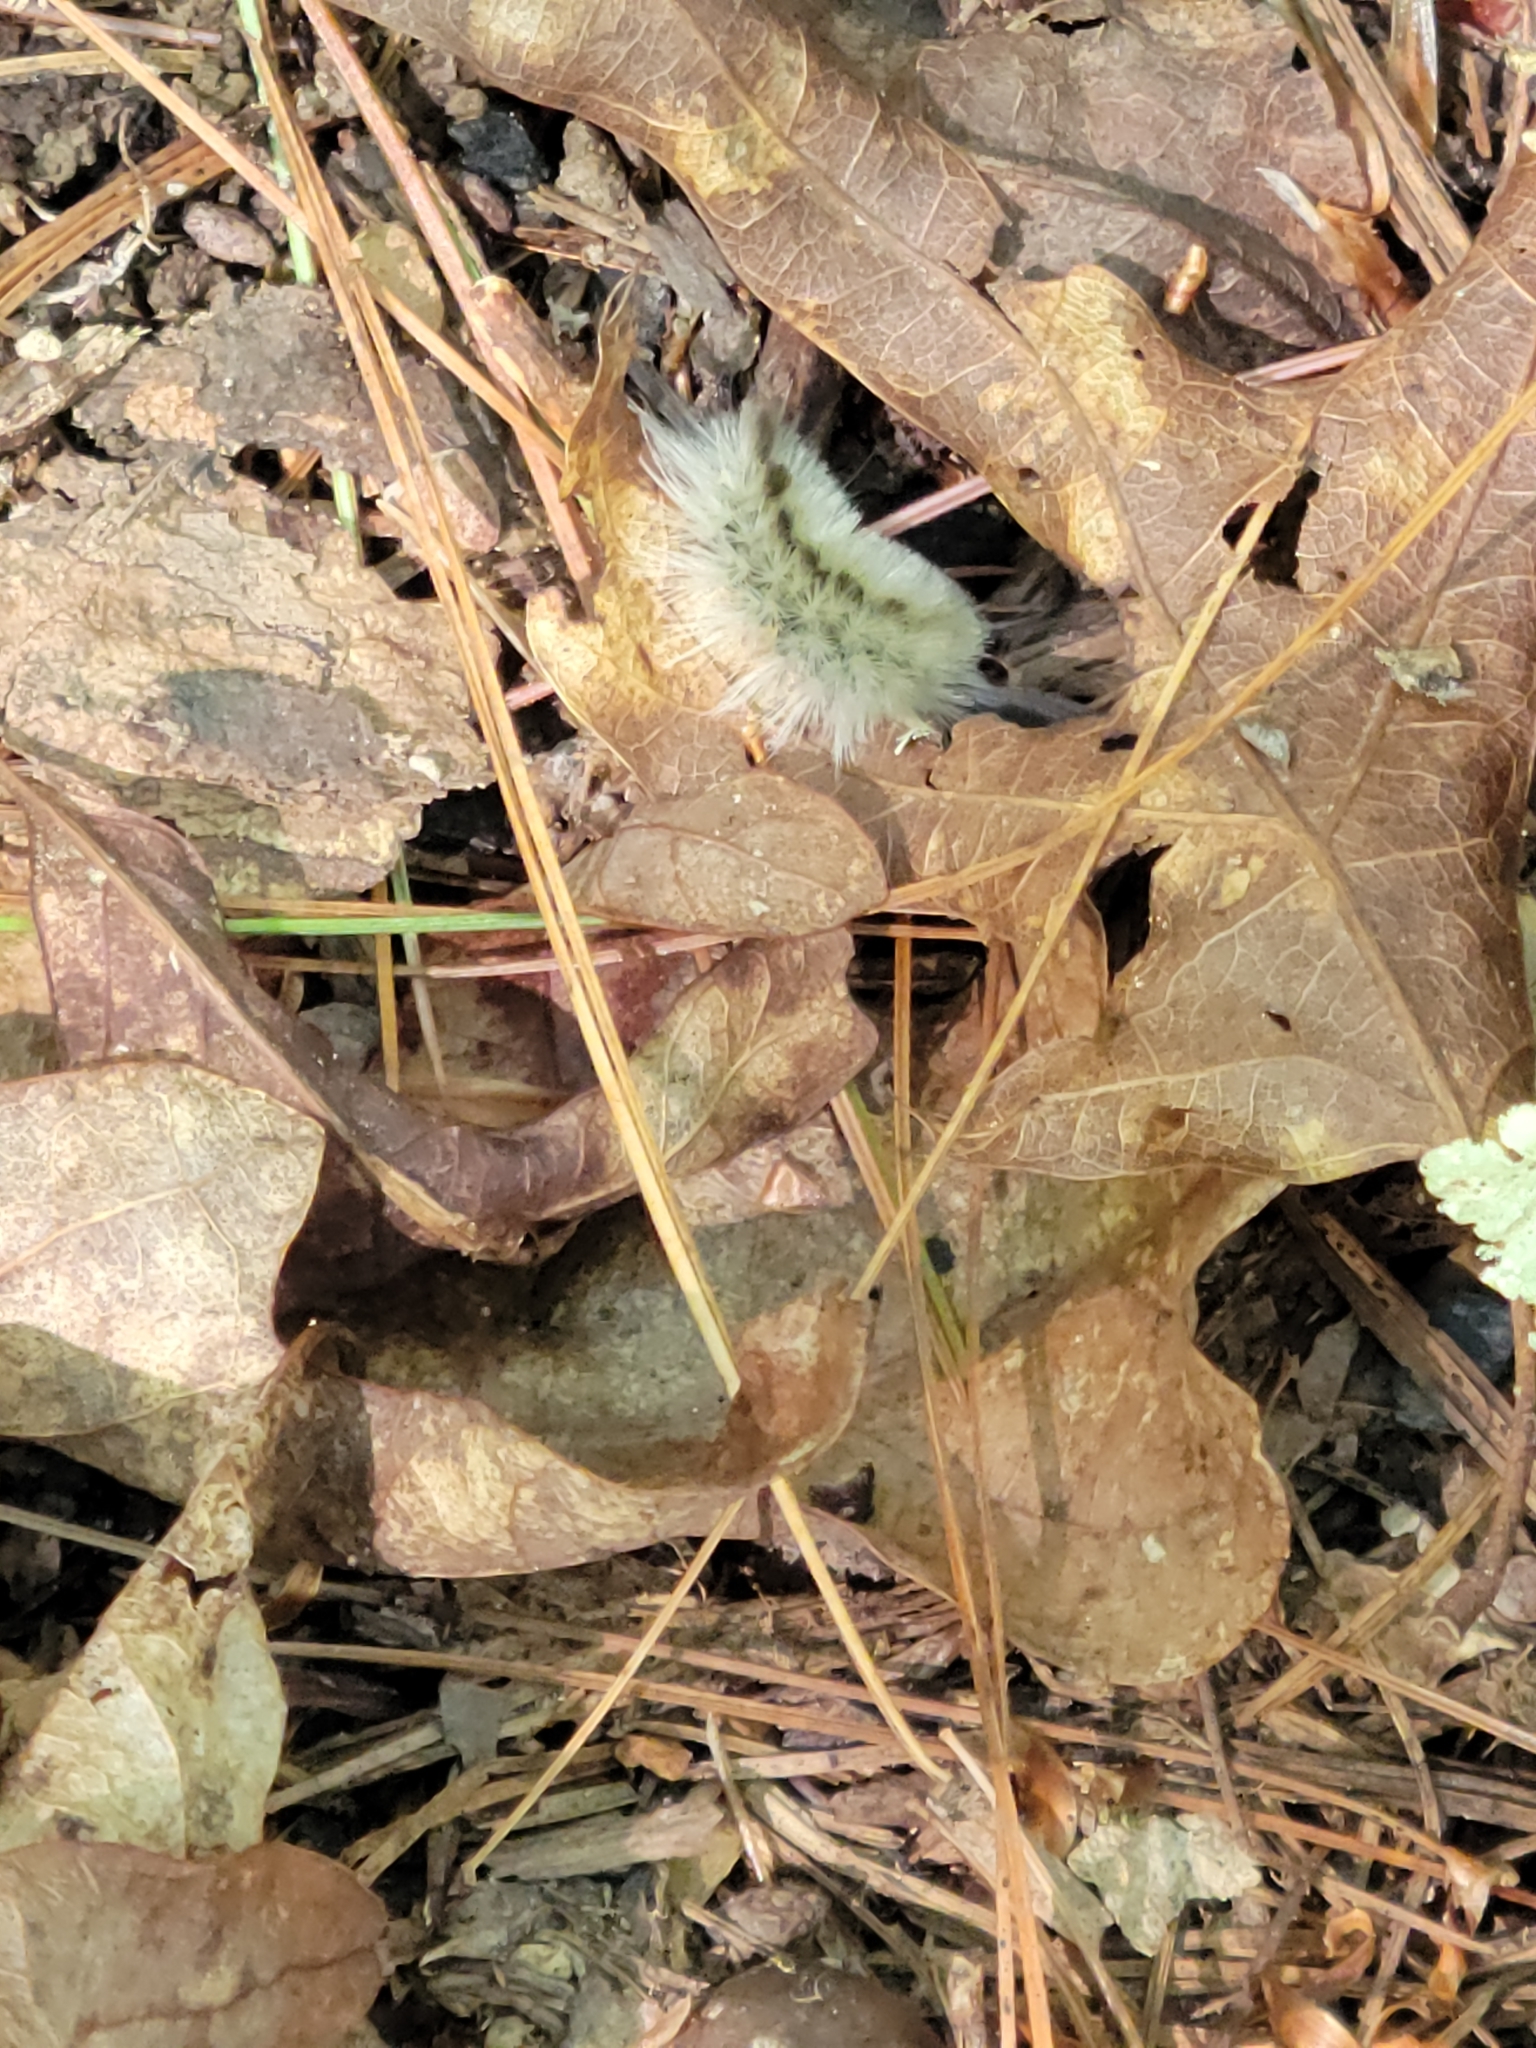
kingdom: Animalia
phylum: Arthropoda
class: Insecta
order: Lepidoptera
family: Erebidae
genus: Halysidota
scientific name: Halysidota tessellaris
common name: Banded tussock moth
